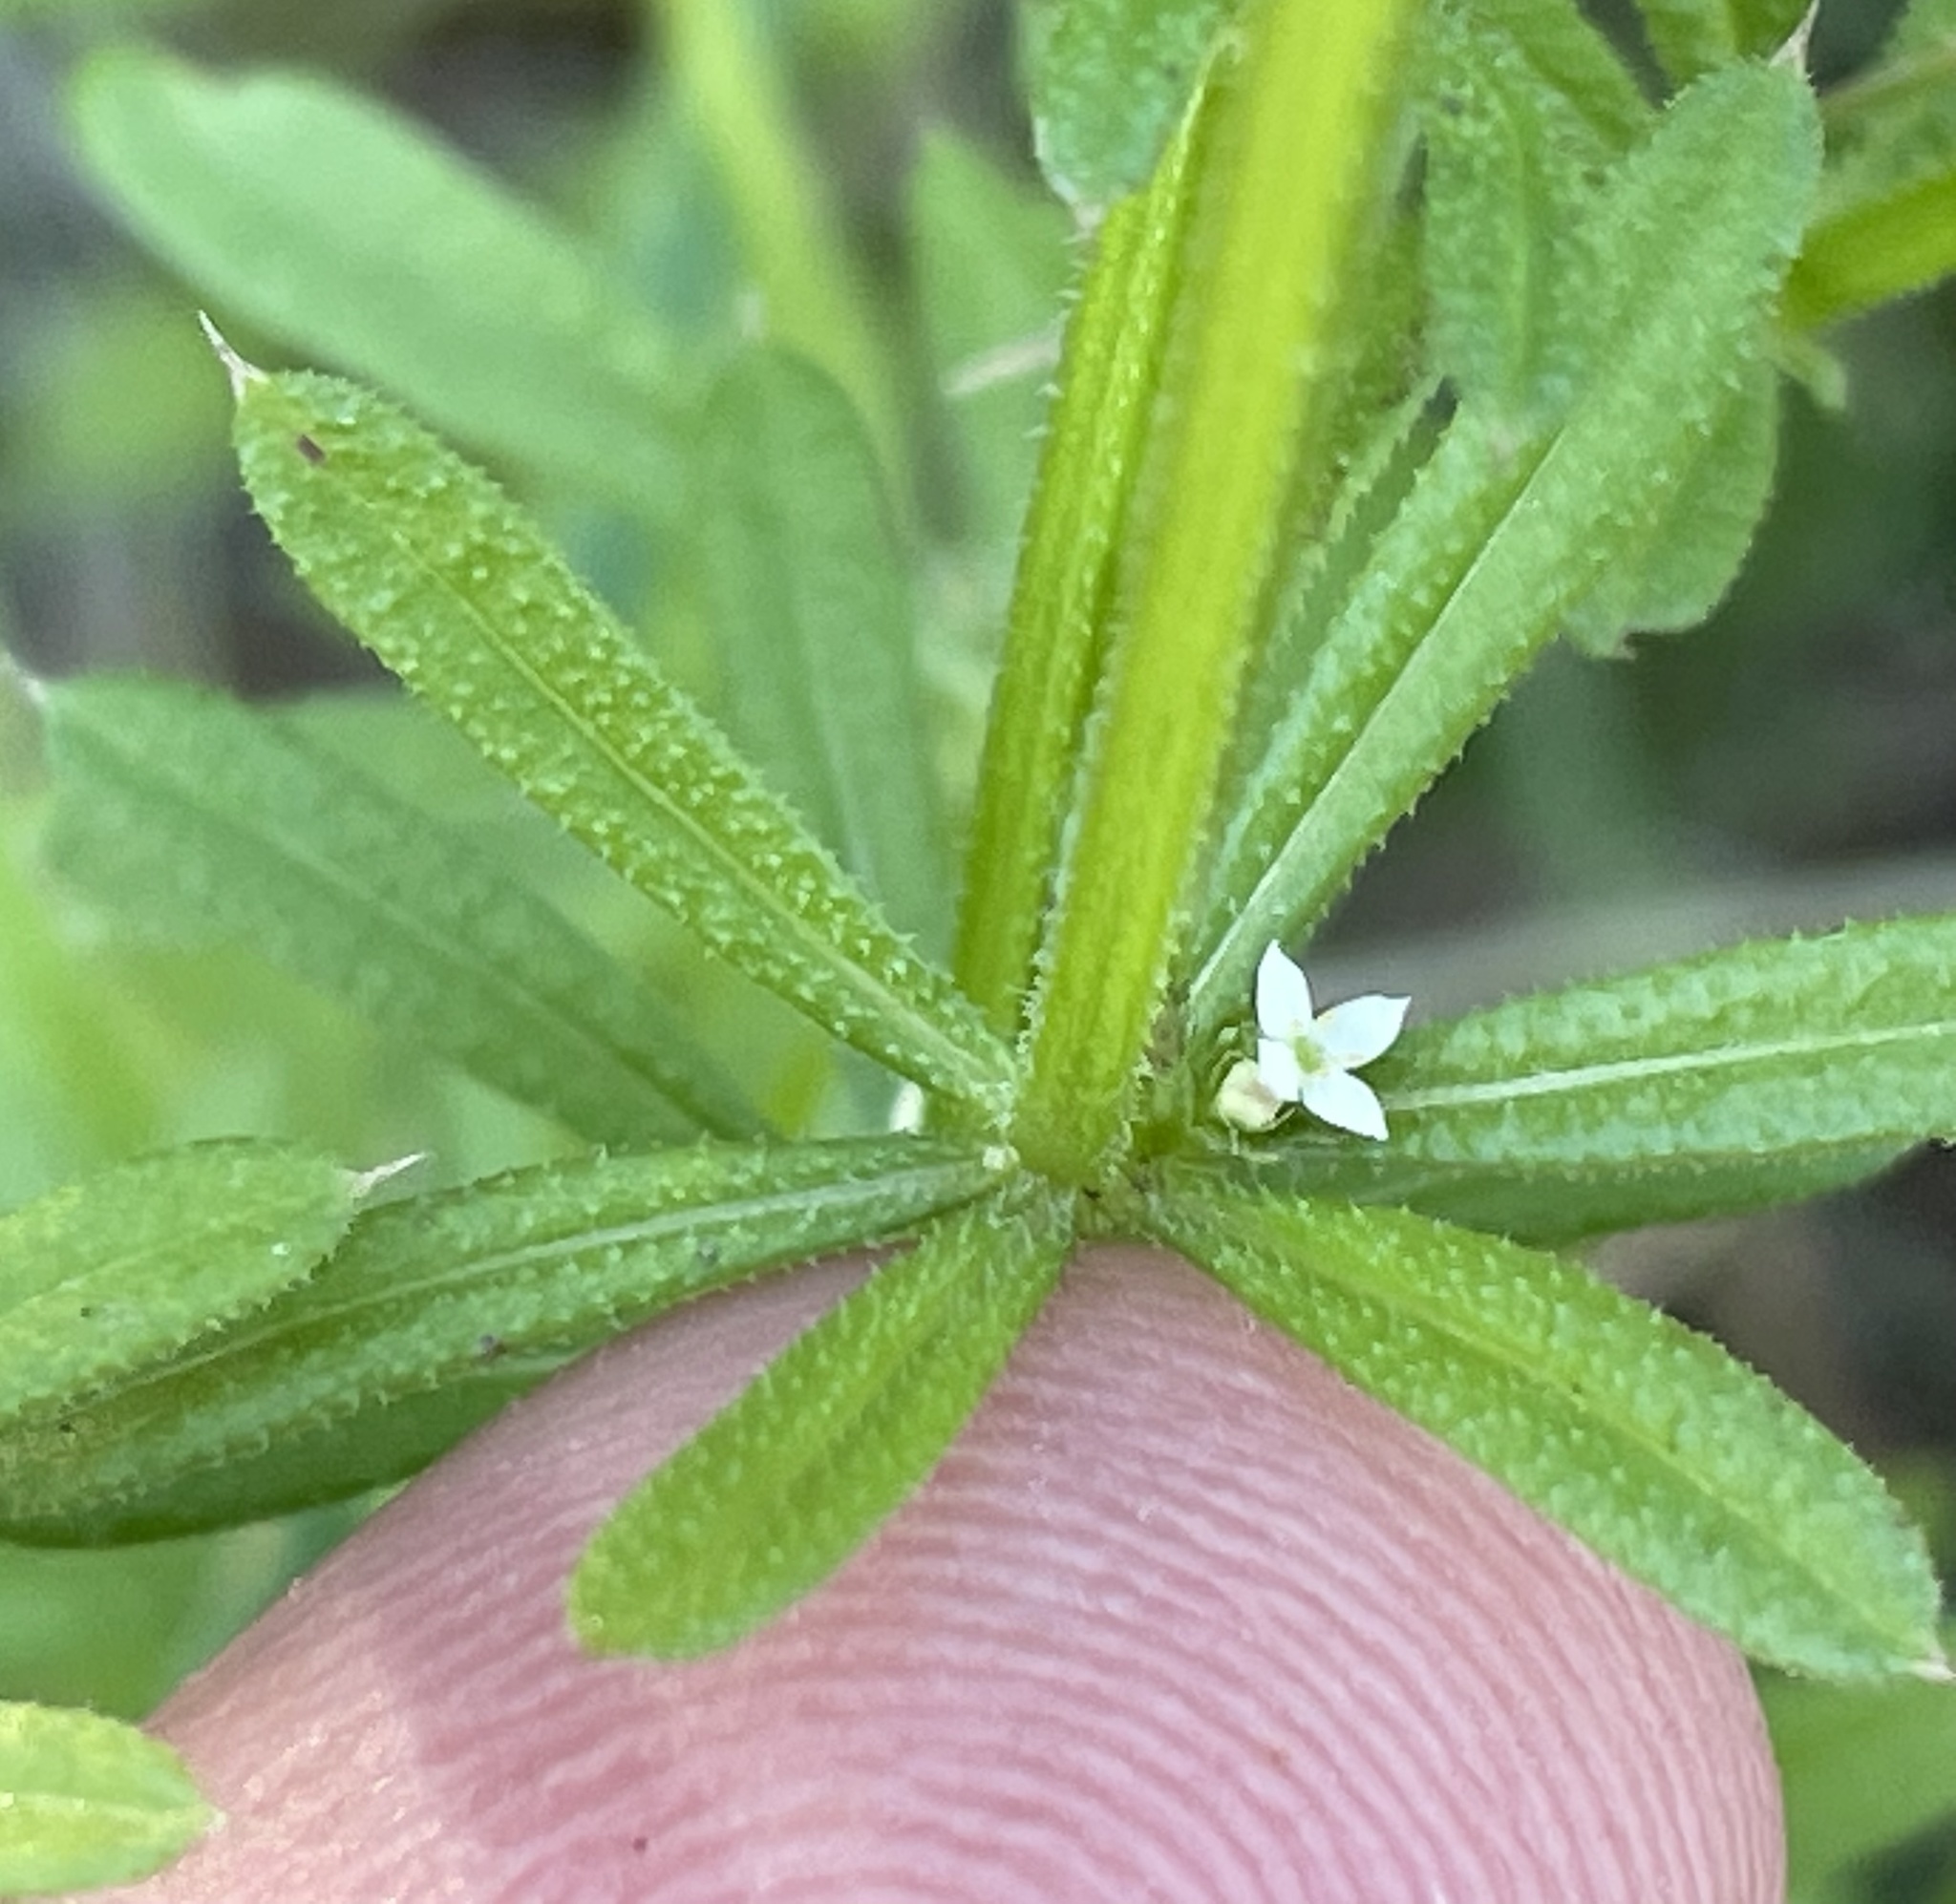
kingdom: Plantae
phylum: Tracheophyta
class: Magnoliopsida
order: Gentianales
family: Rubiaceae
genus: Galium
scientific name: Galium aparine
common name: Cleavers
